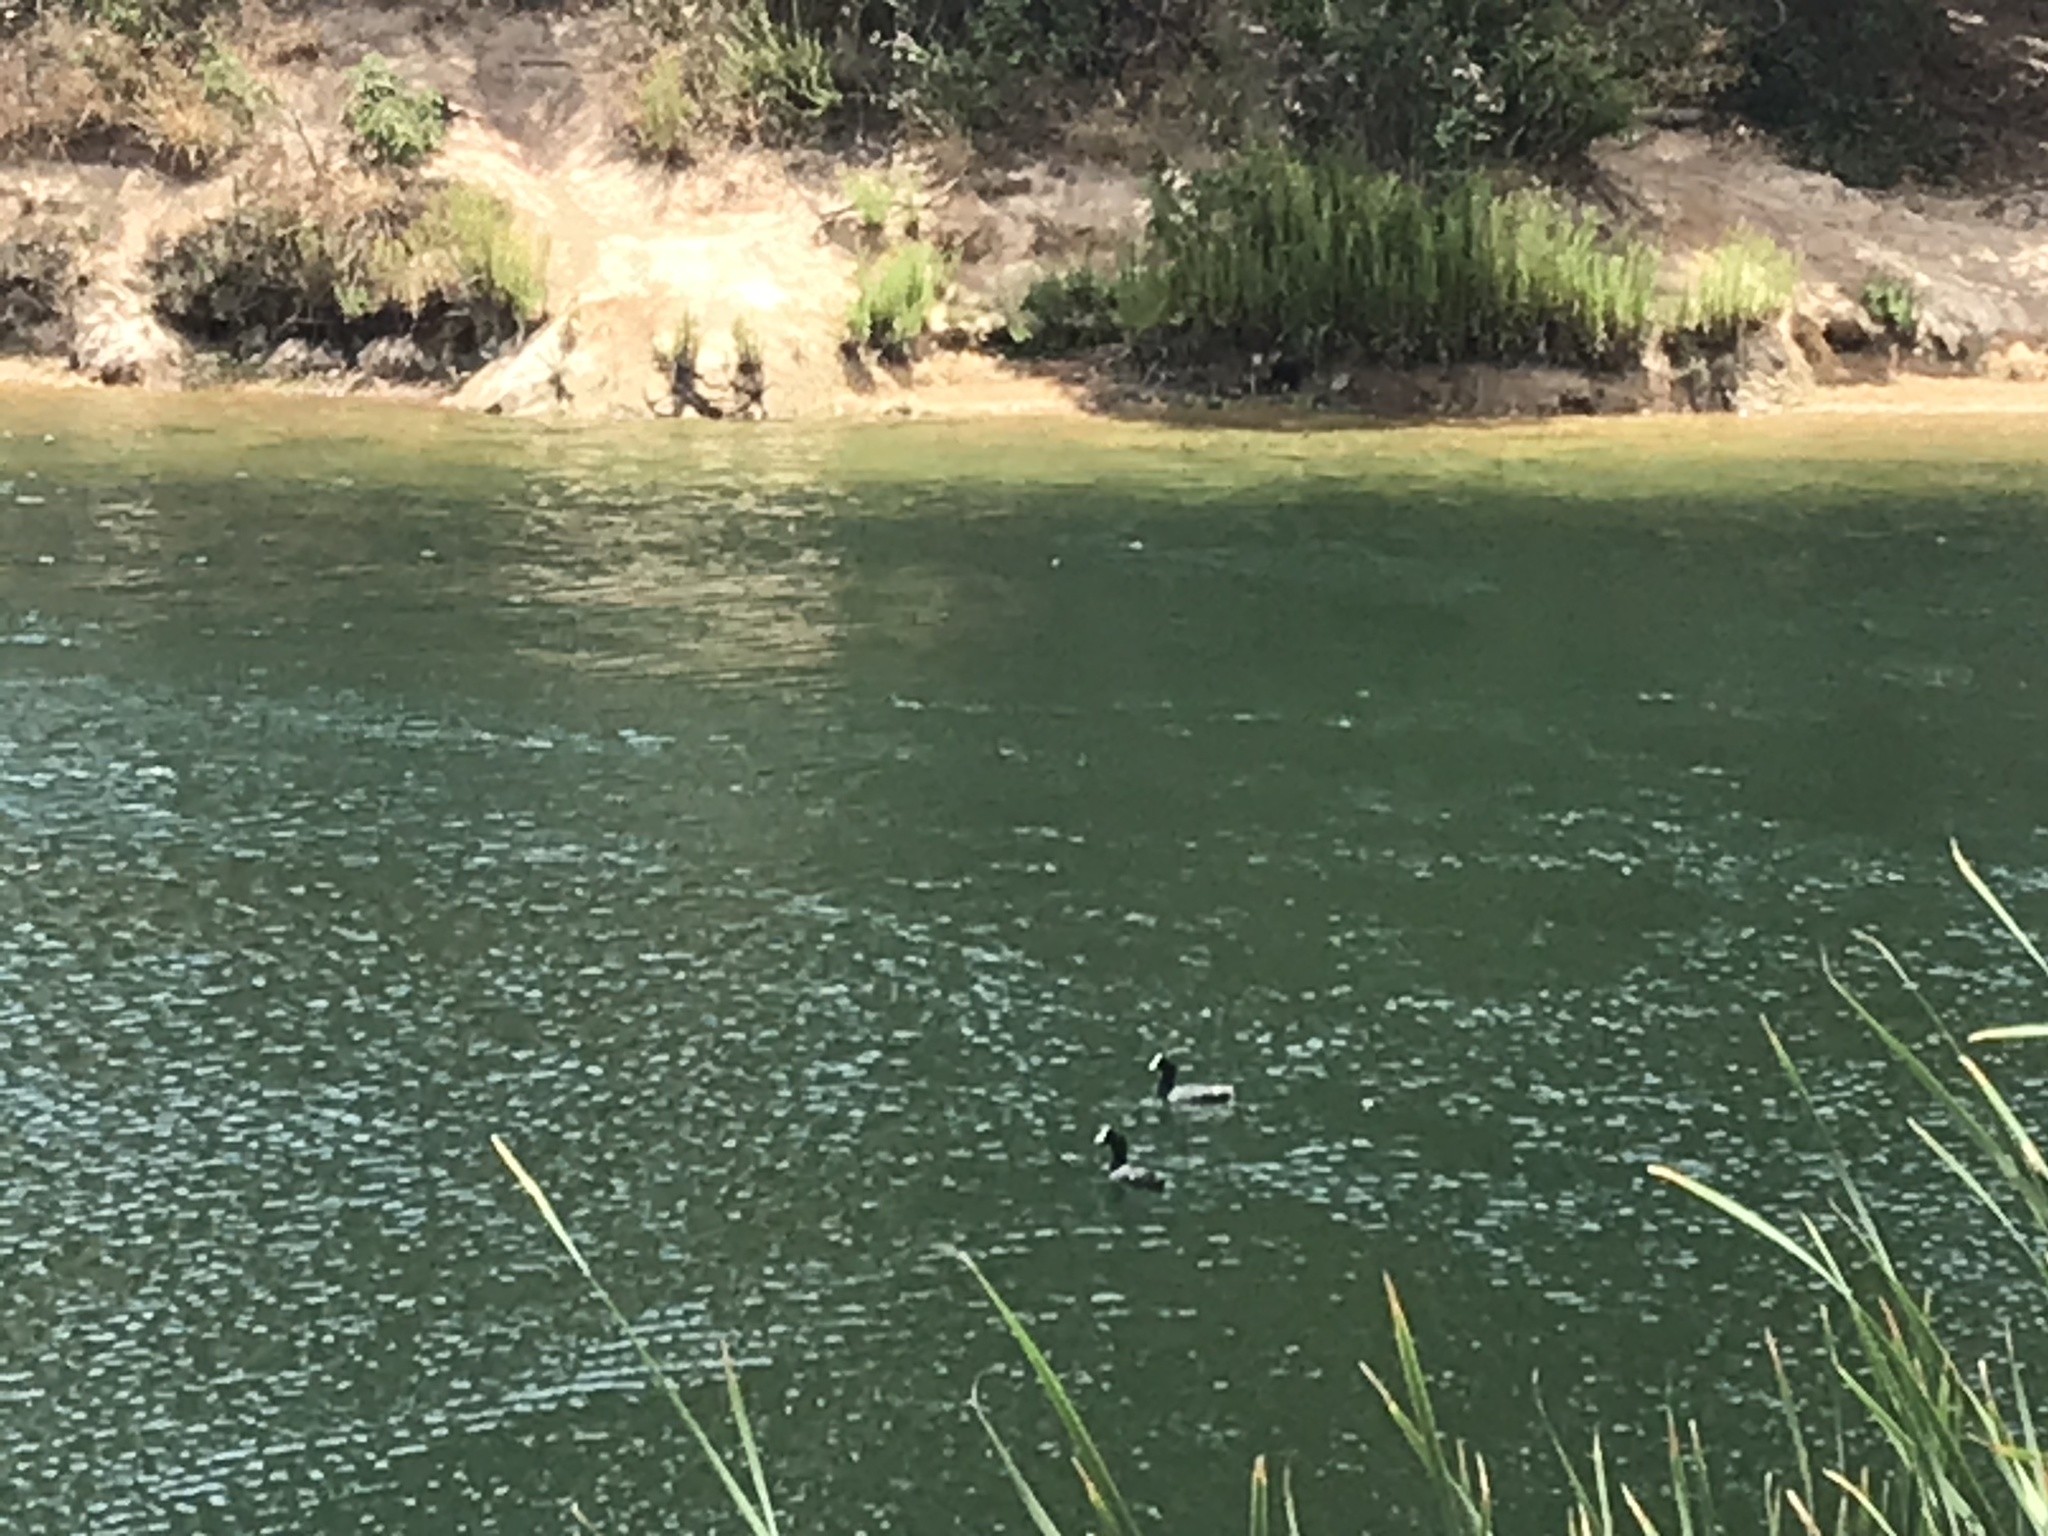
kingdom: Animalia
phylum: Chordata
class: Aves
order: Gruiformes
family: Rallidae
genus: Fulica
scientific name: Fulica americana
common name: American coot
